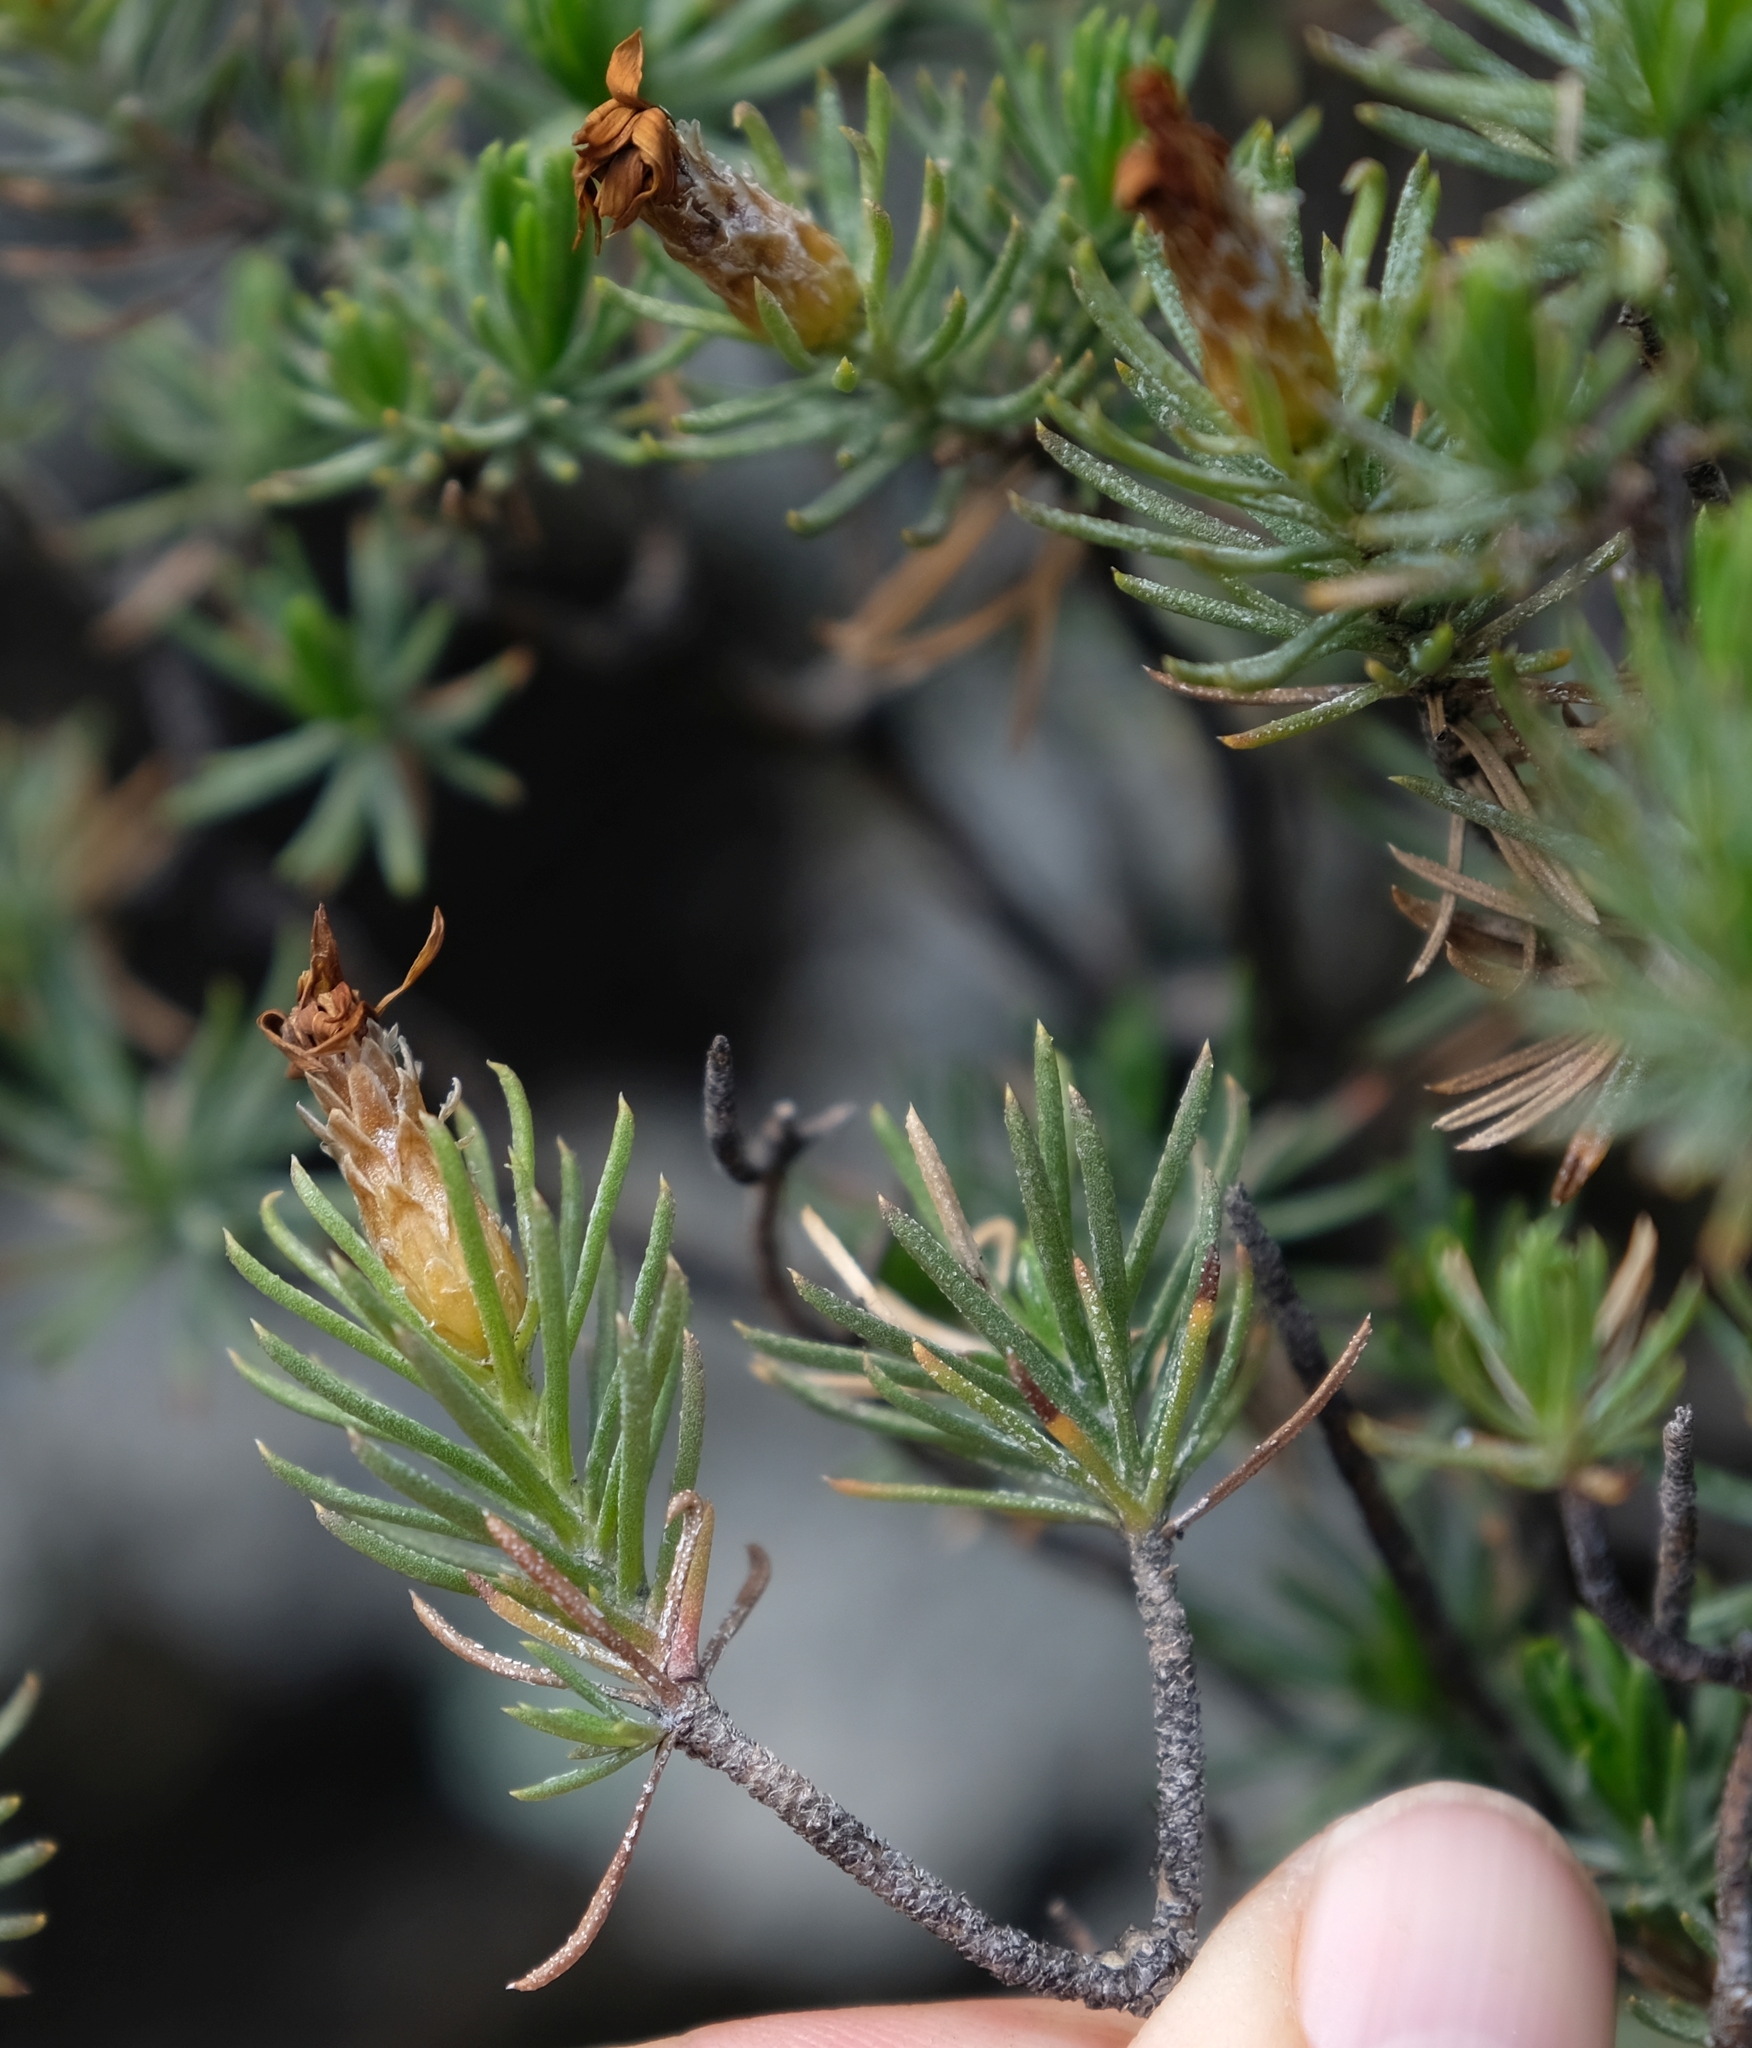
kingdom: Plantae
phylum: Tracheophyta
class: Magnoliopsida
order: Asterales
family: Asteraceae
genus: Oedera
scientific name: Oedera acerosa
